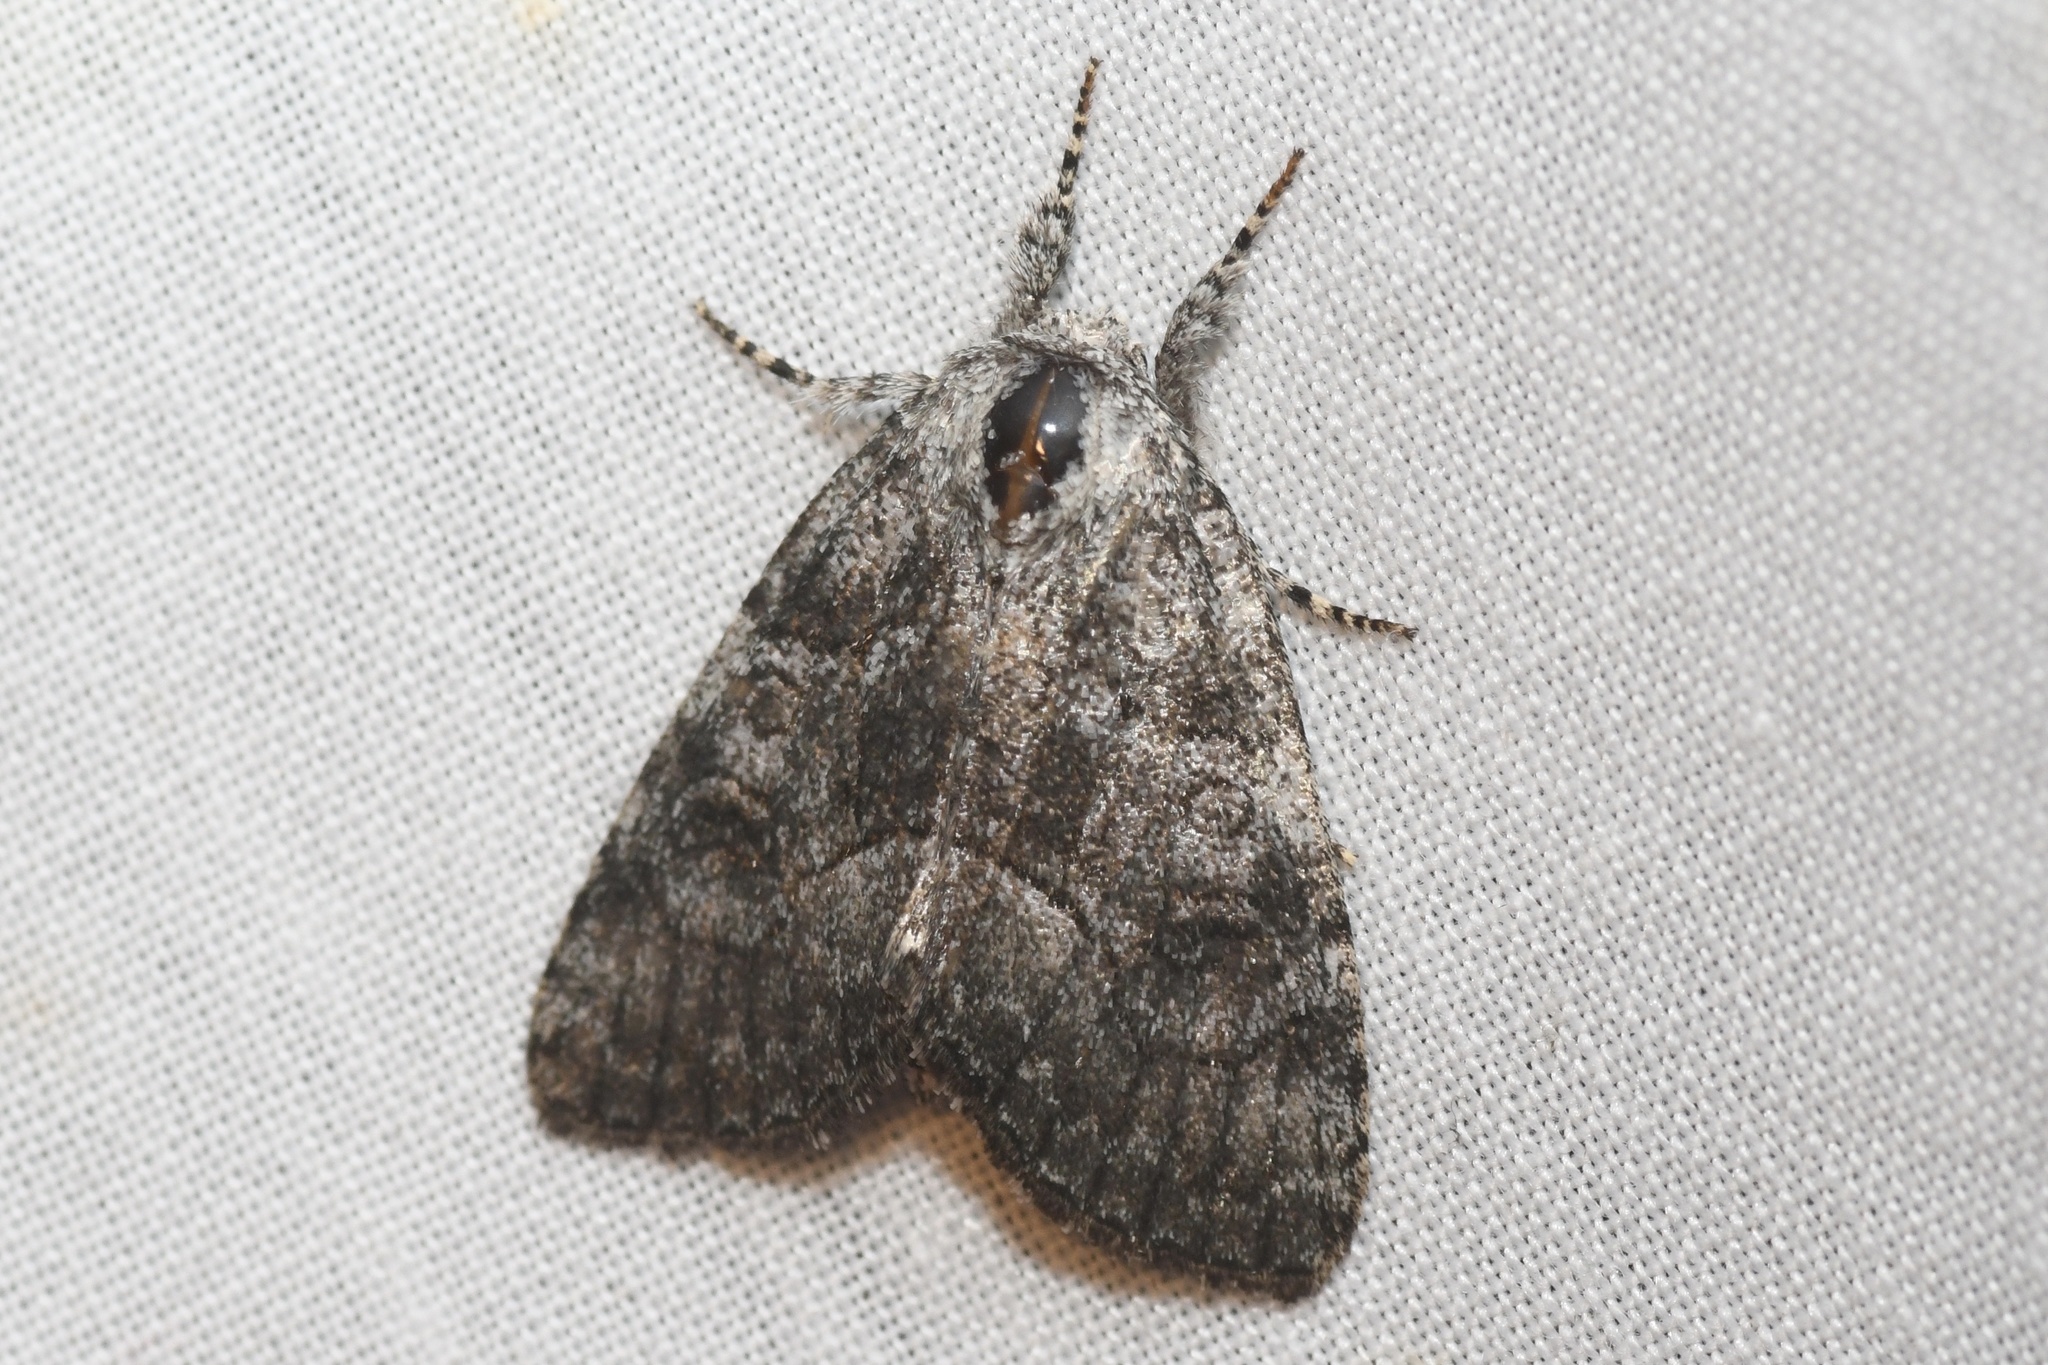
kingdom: Animalia
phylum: Arthropoda
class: Insecta
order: Lepidoptera
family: Noctuidae
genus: Raphia
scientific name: Raphia frater
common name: Brother
